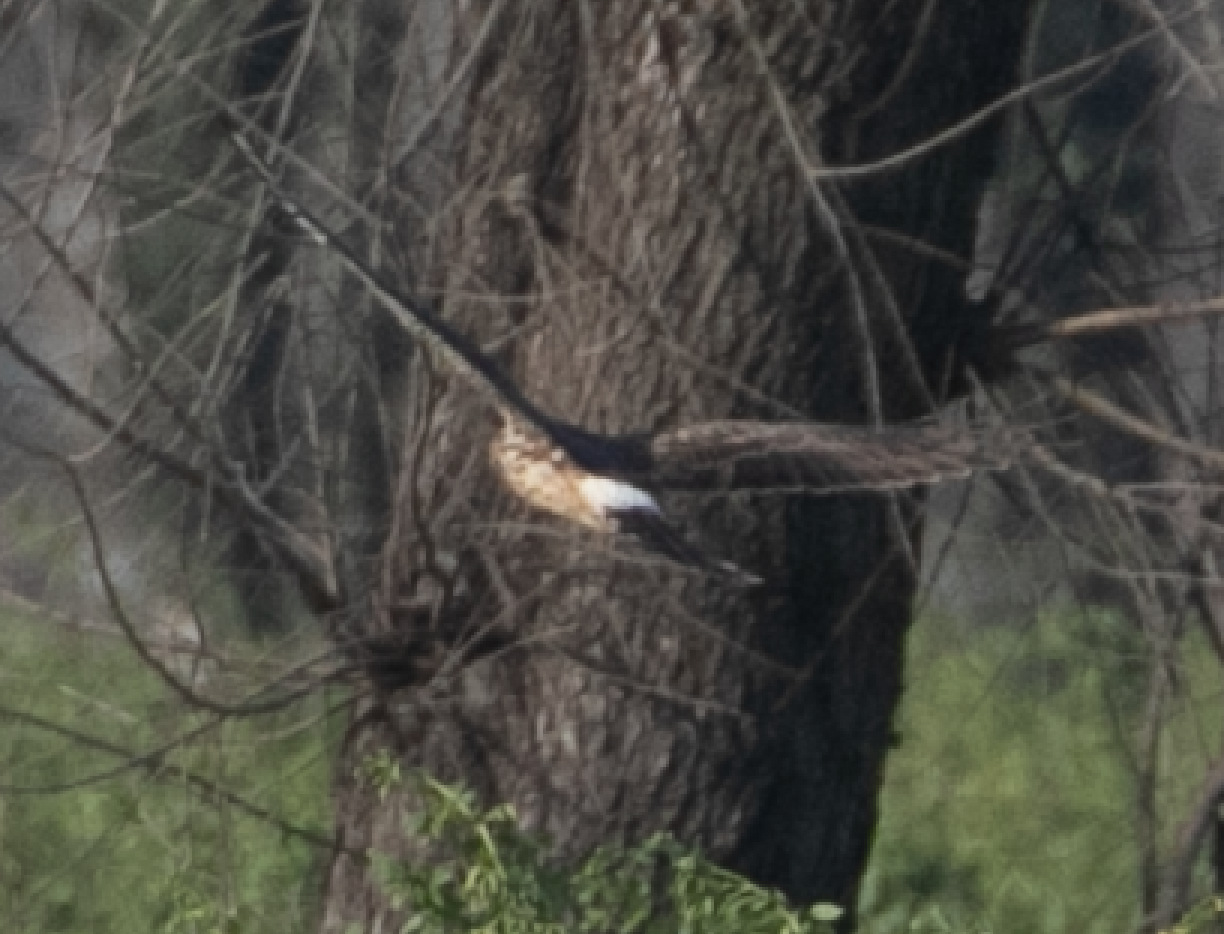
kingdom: Animalia
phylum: Chordata
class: Aves
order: Accipitriformes
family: Accipitridae
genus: Circus
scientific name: Circus cyaneus
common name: Hen harrier
